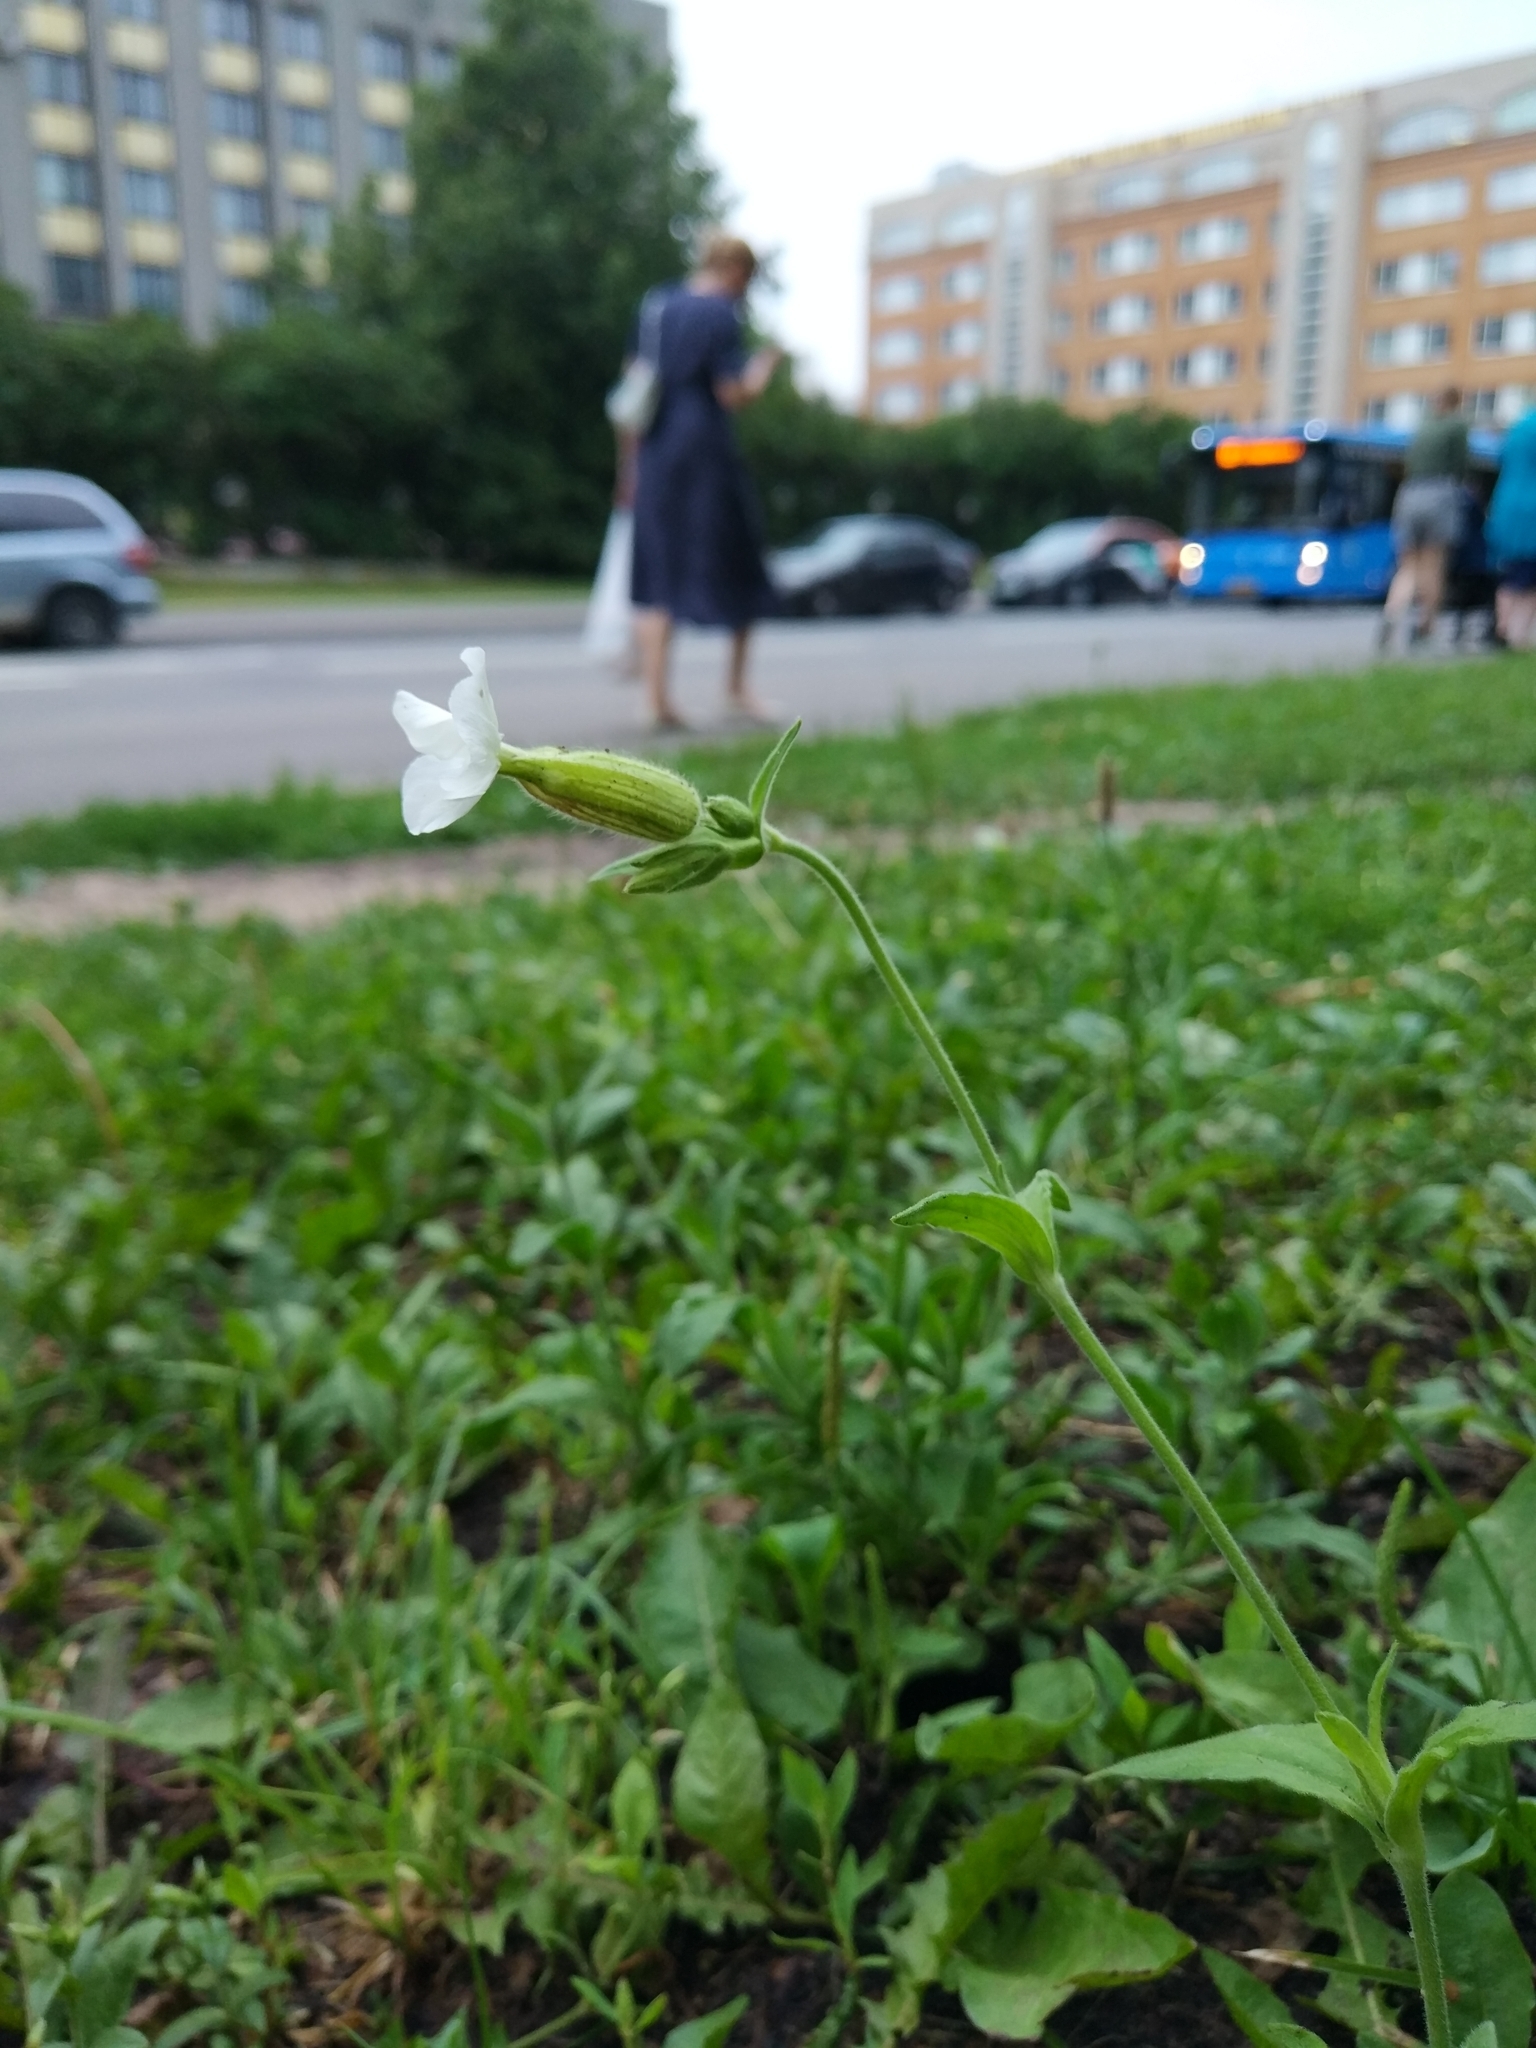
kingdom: Plantae
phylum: Tracheophyta
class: Magnoliopsida
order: Caryophyllales
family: Caryophyllaceae
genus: Silene
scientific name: Silene latifolia
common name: White campion
